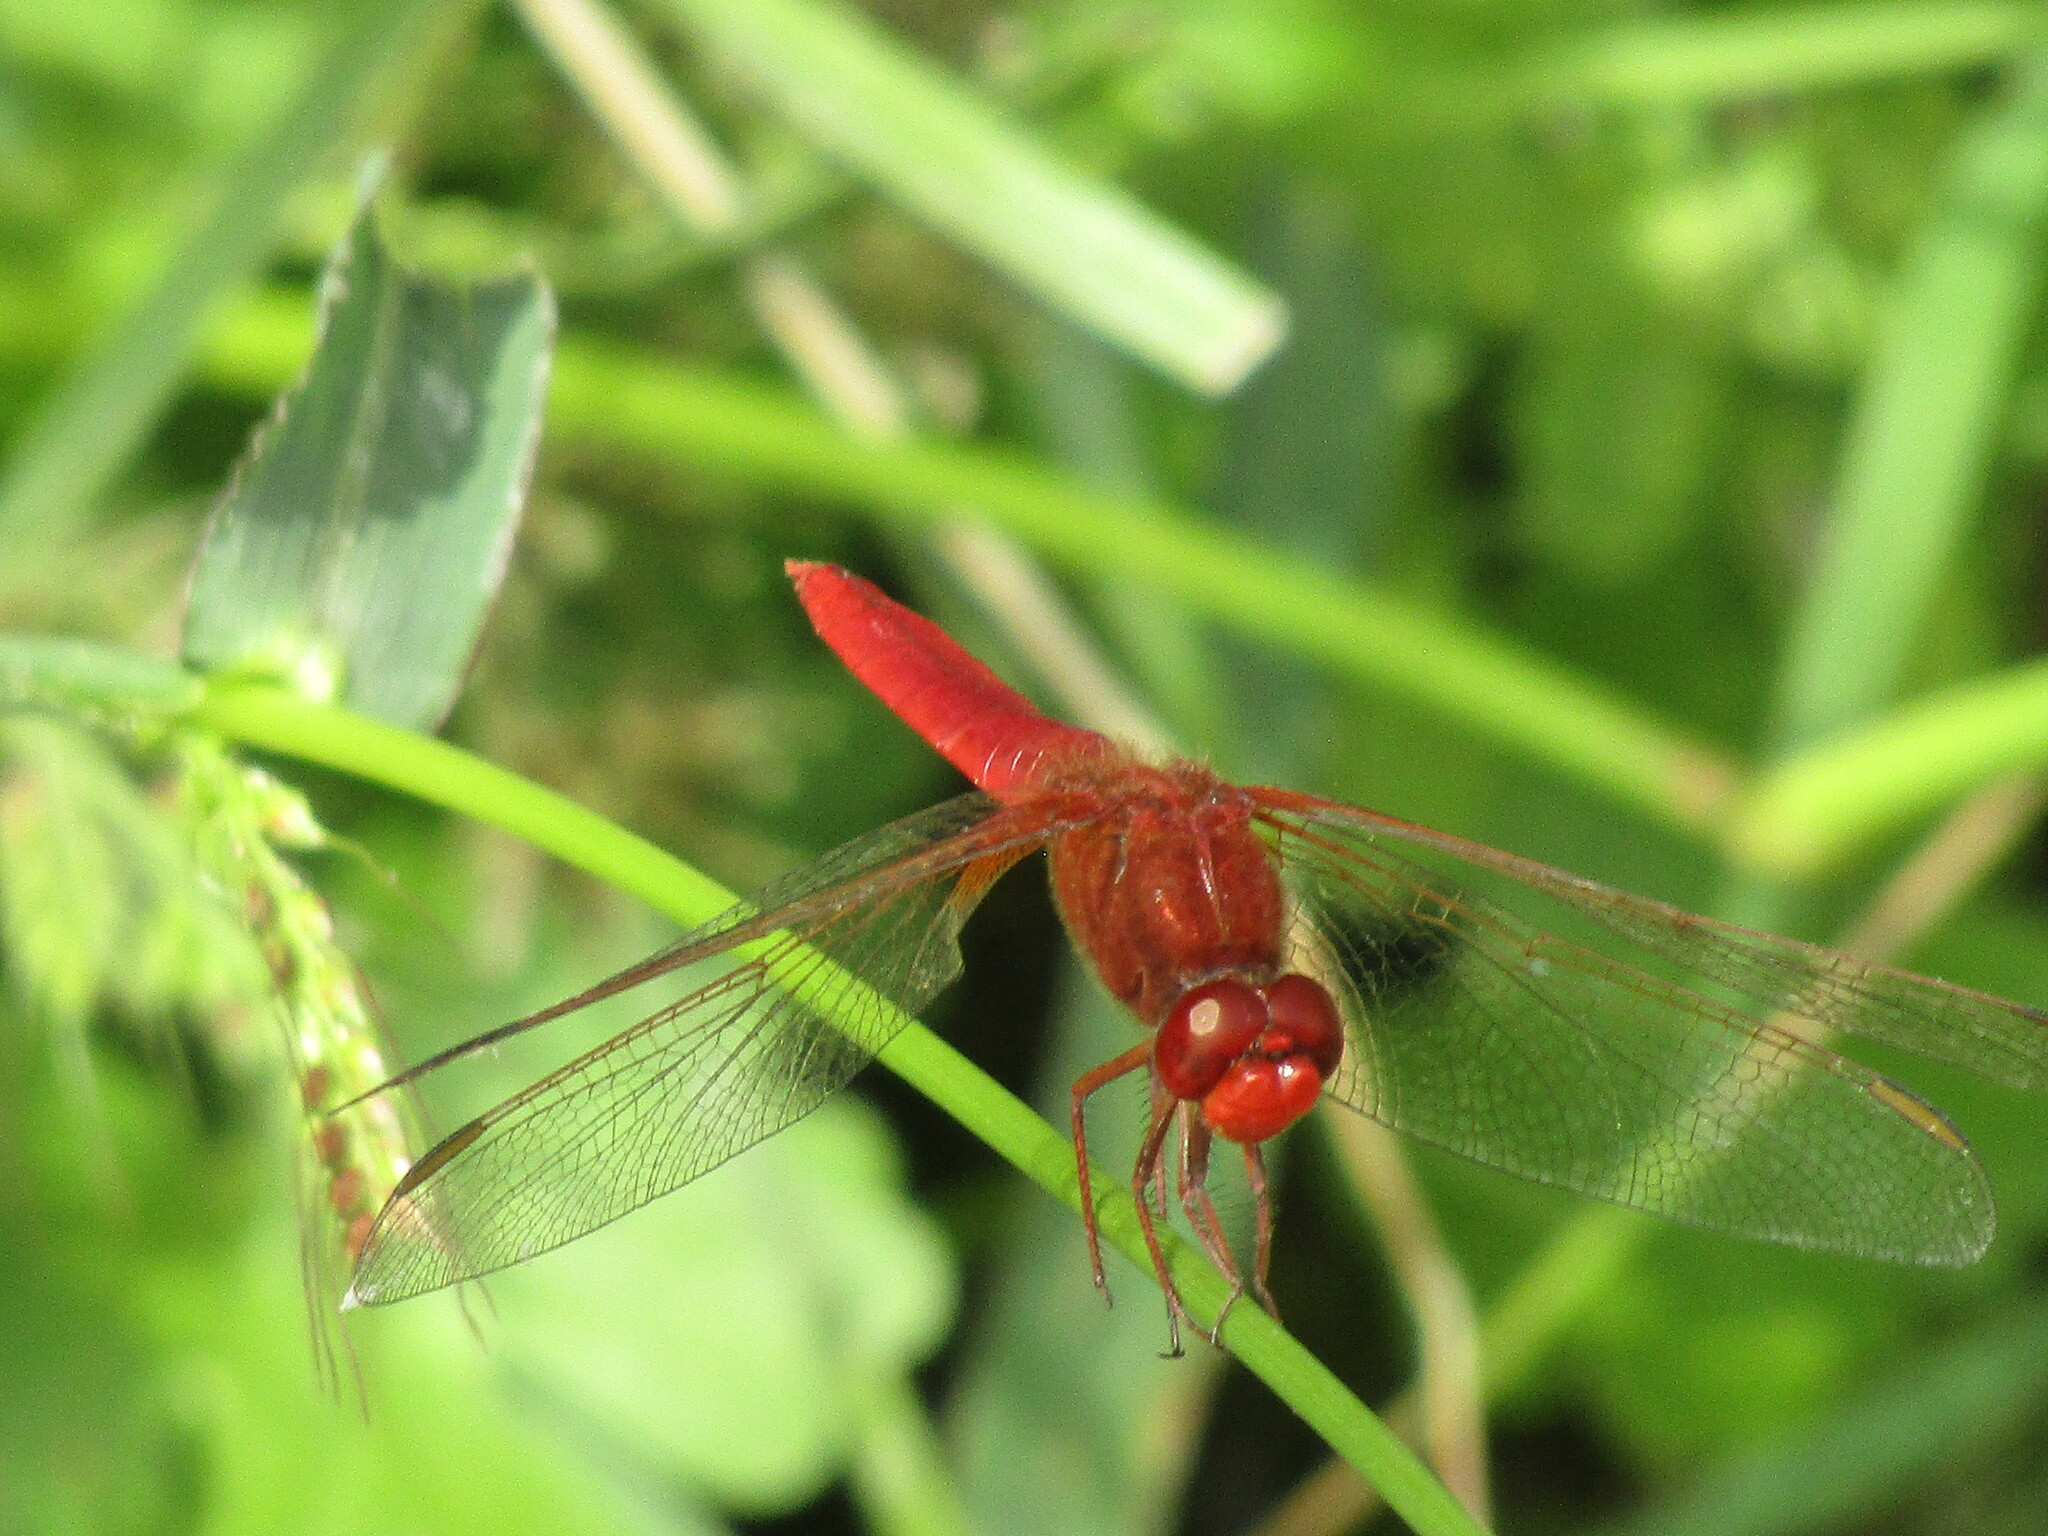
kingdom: Animalia
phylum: Arthropoda
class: Insecta
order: Odonata
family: Libellulidae
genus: Crocothemis
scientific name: Crocothemis erythraea
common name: Scarlet dragonfly
